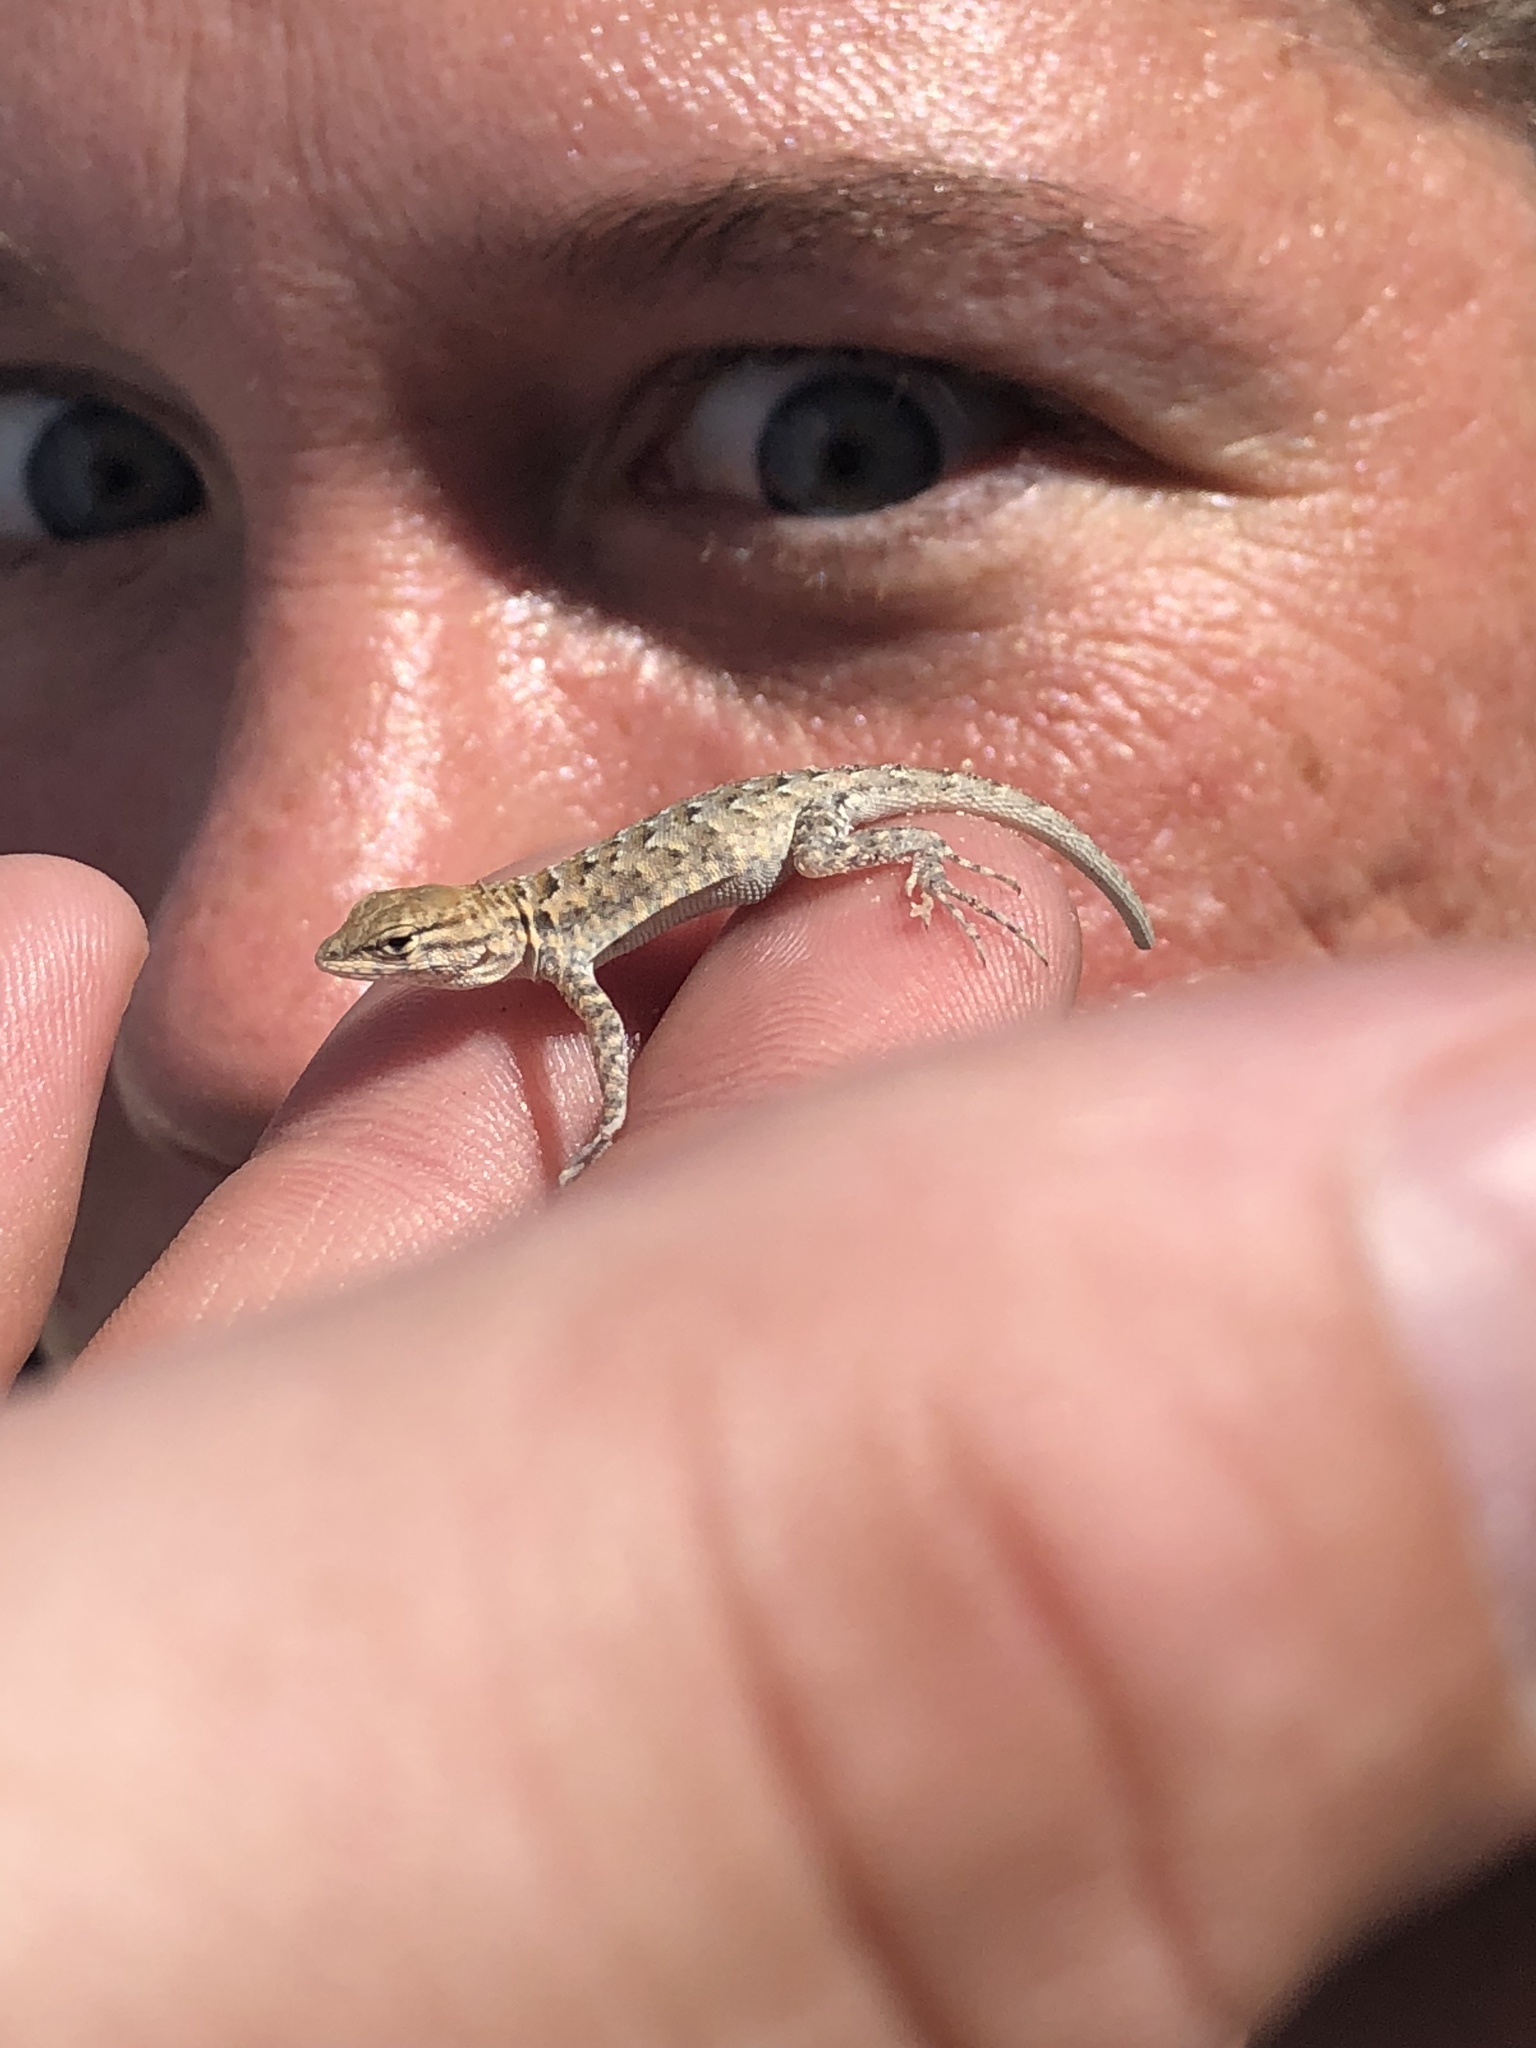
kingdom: Animalia
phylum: Chordata
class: Squamata
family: Phrynosomatidae
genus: Uta
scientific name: Uta stansburiana
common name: Side-blotched lizard
